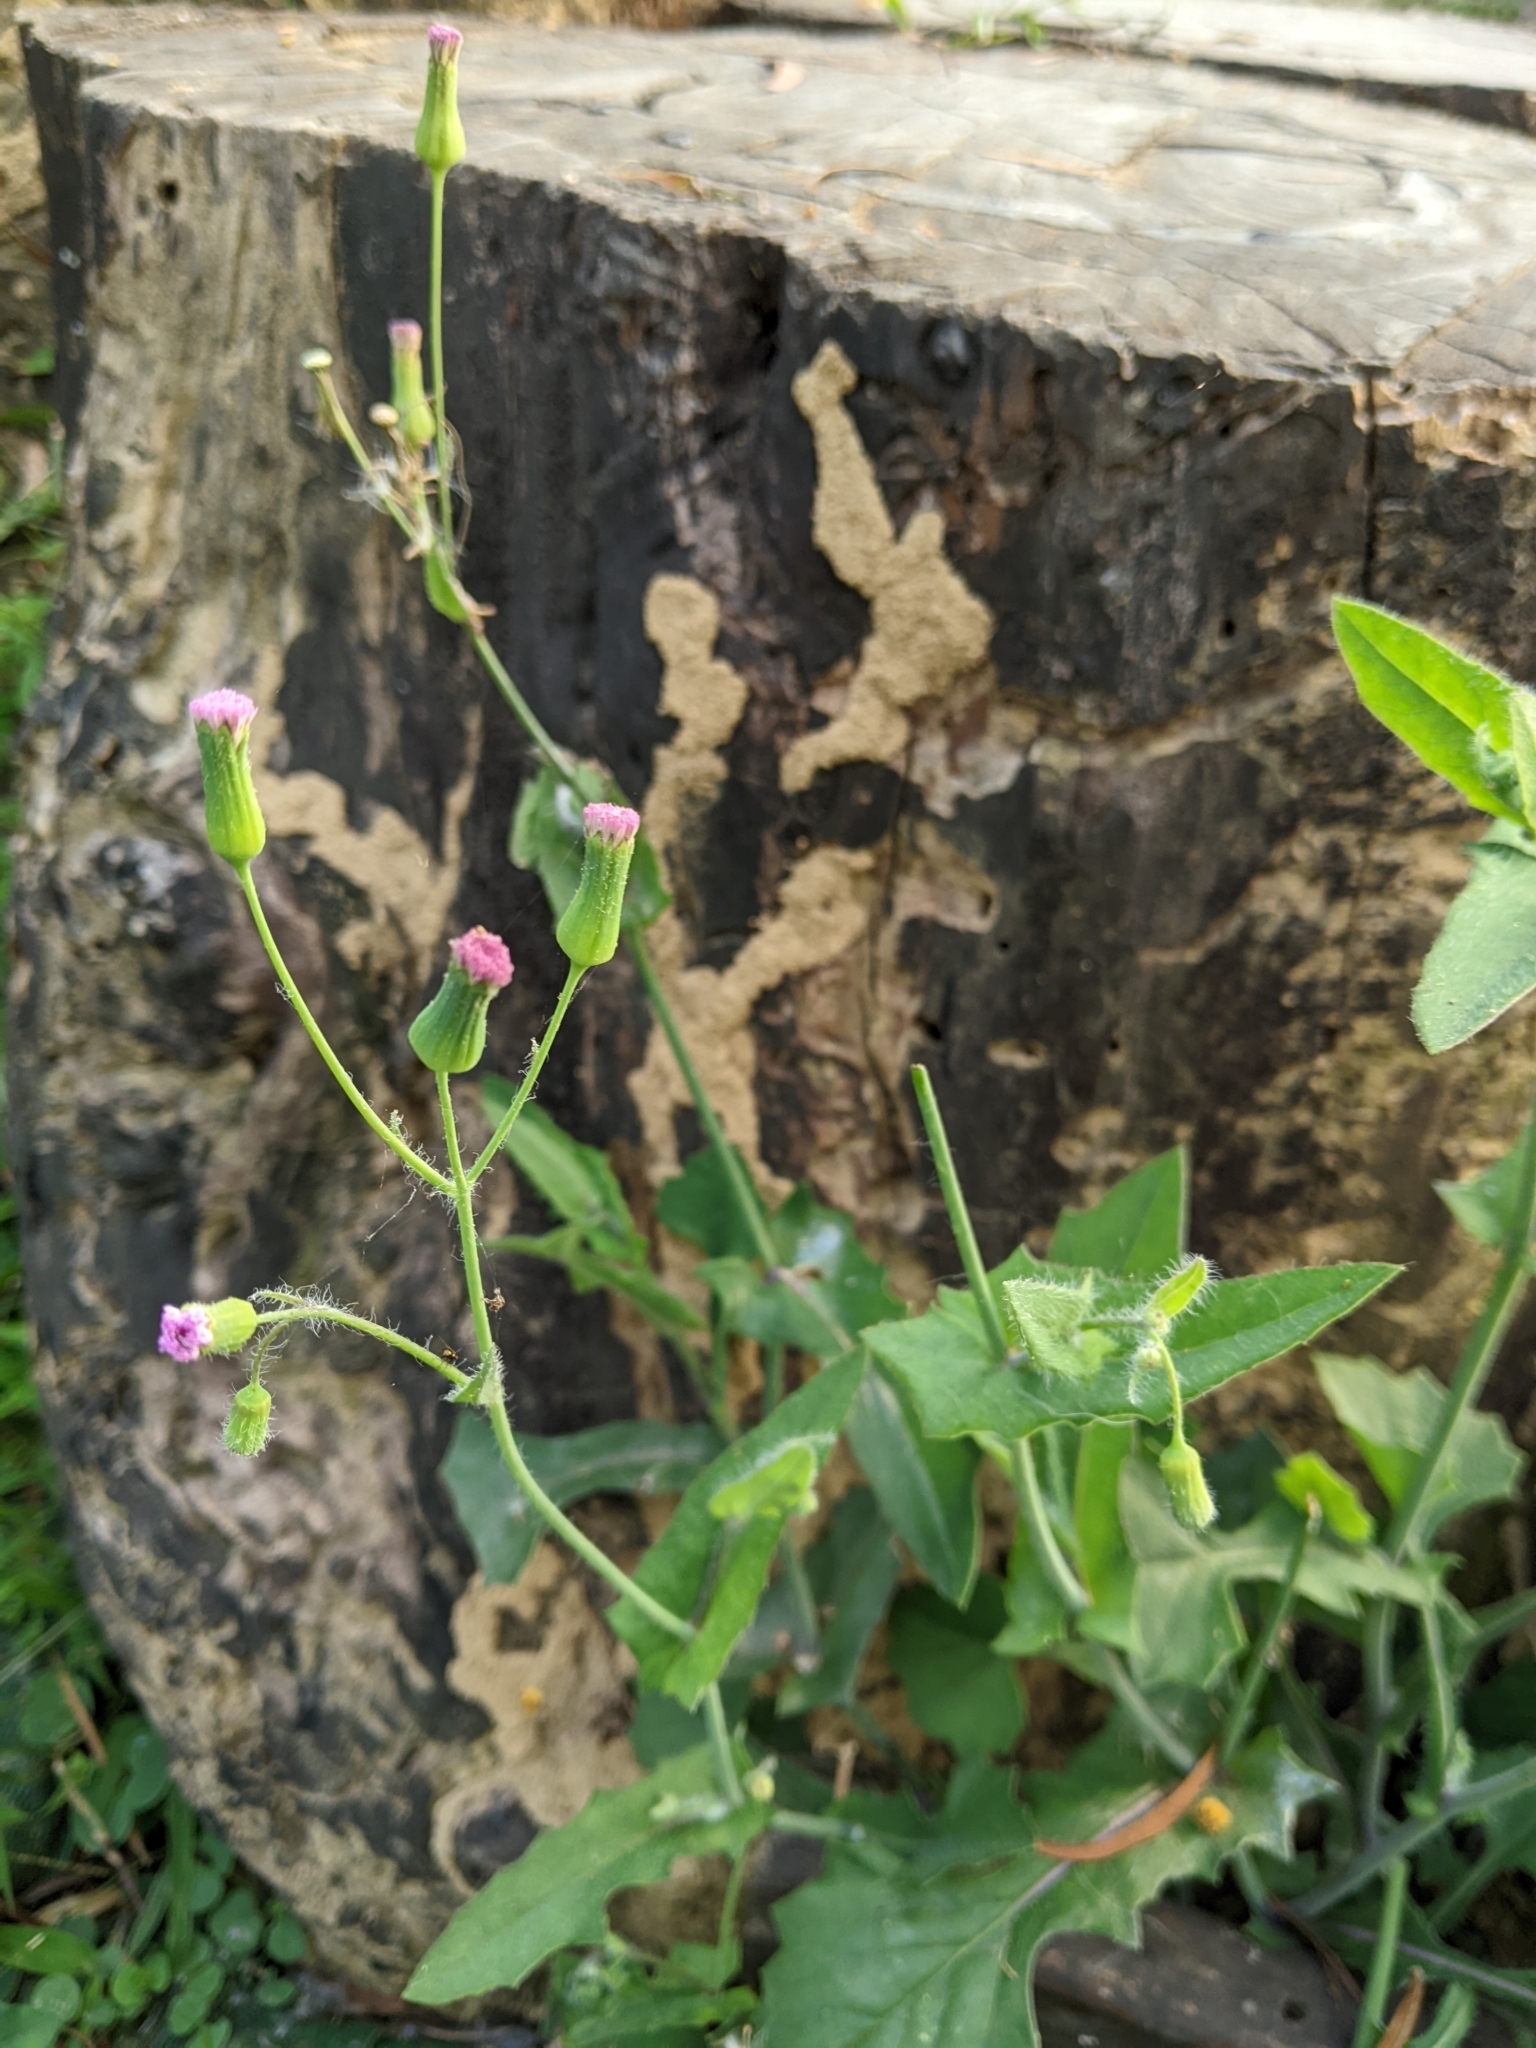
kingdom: Plantae
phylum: Tracheophyta
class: Magnoliopsida
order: Asterales
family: Asteraceae
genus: Emilia
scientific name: Emilia javanica
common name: Tassel-flower
